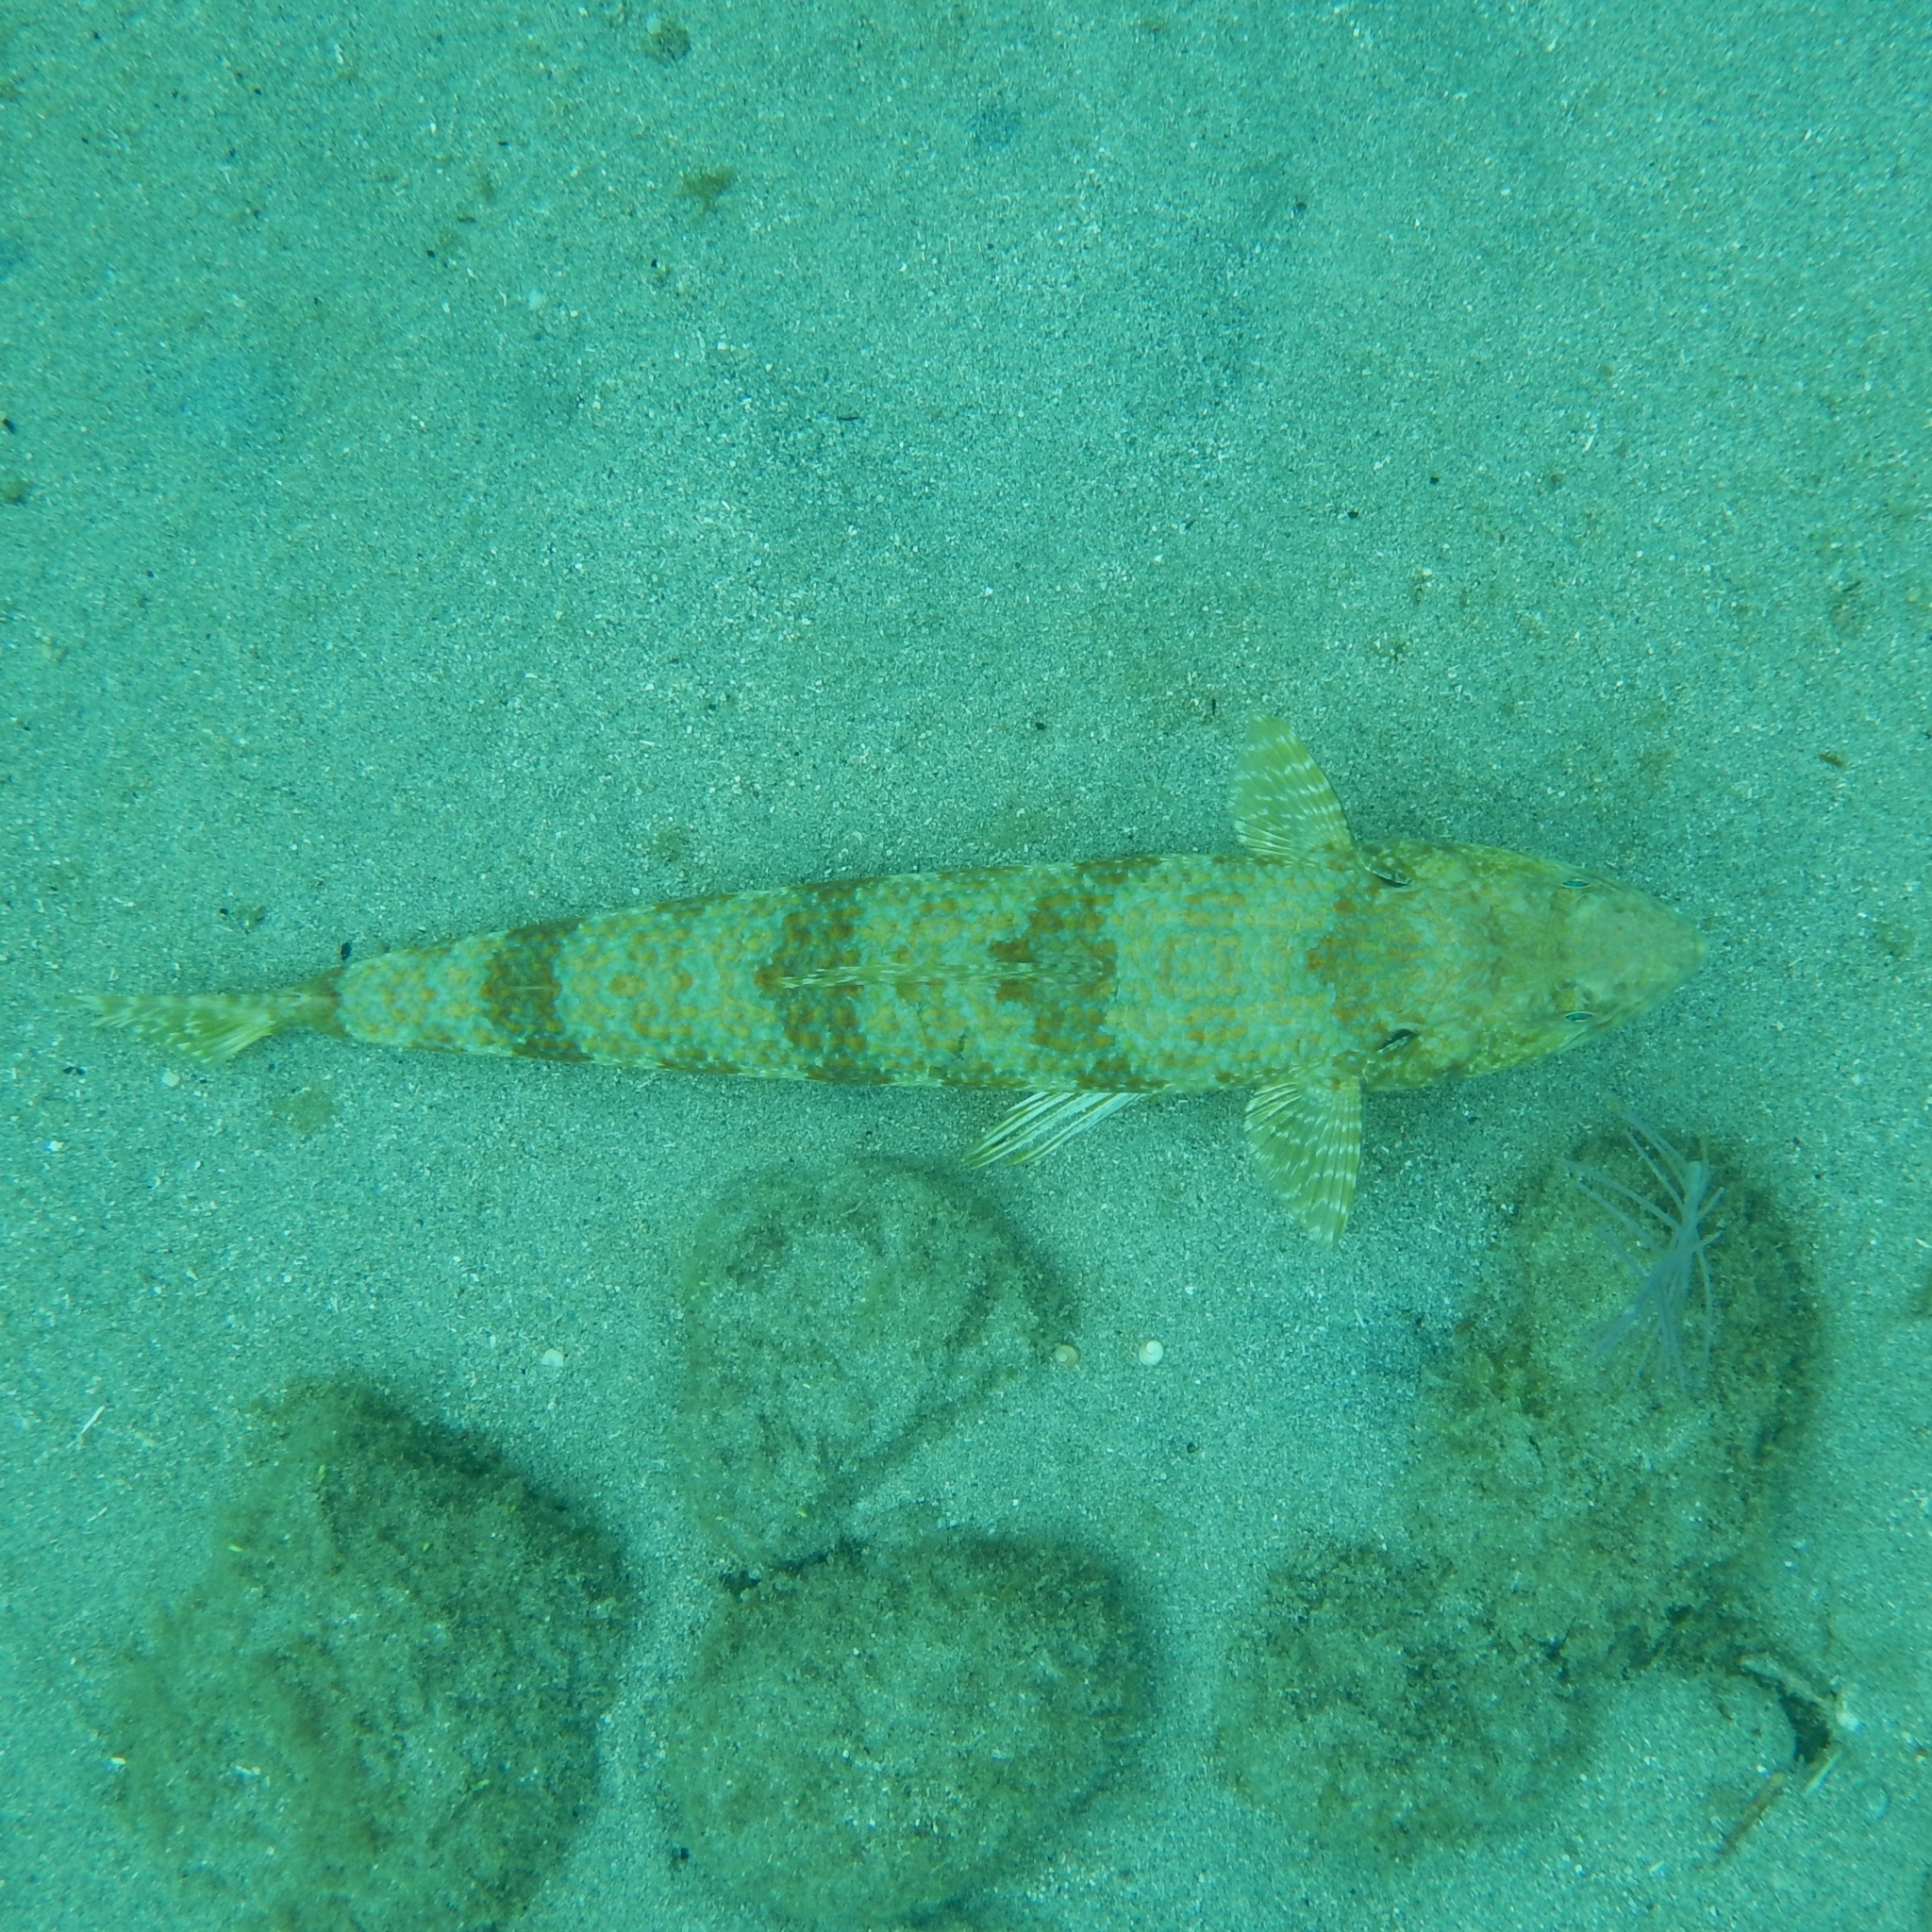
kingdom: Animalia
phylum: Chordata
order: Aulopiformes
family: Synodontidae
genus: Synodus
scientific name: Synodus intermedius
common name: Sand diver
